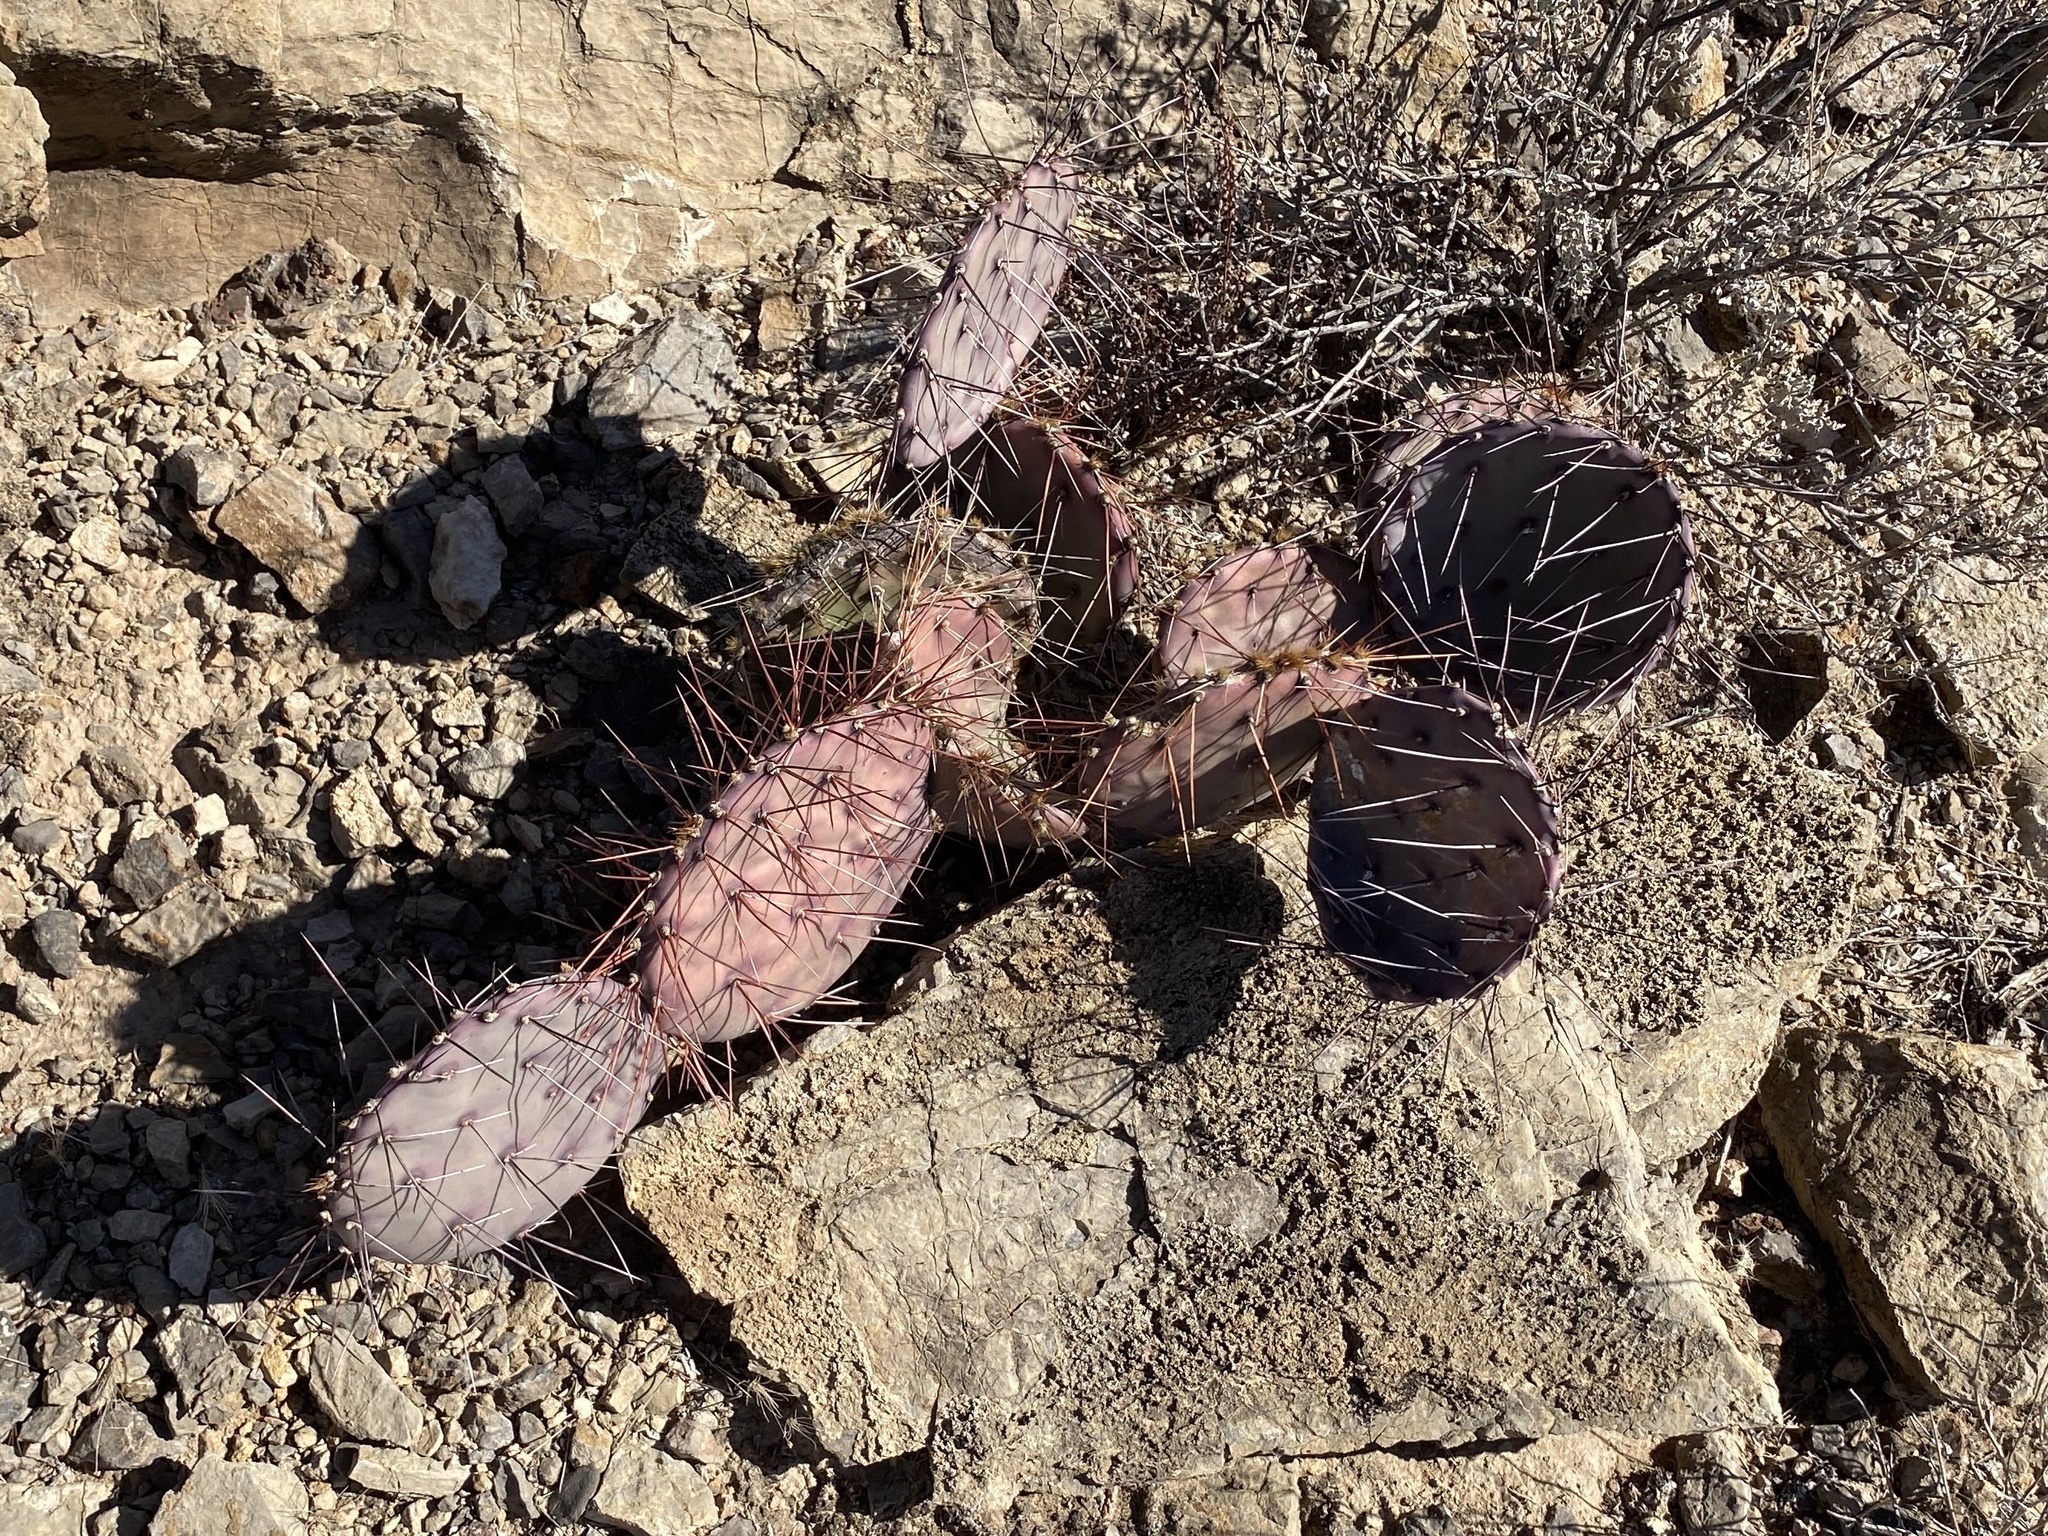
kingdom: Plantae
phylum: Tracheophyta
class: Magnoliopsida
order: Caryophyllales
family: Cactaceae
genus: Opuntia
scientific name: Opuntia macrocentra
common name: Purple prickly-pear
